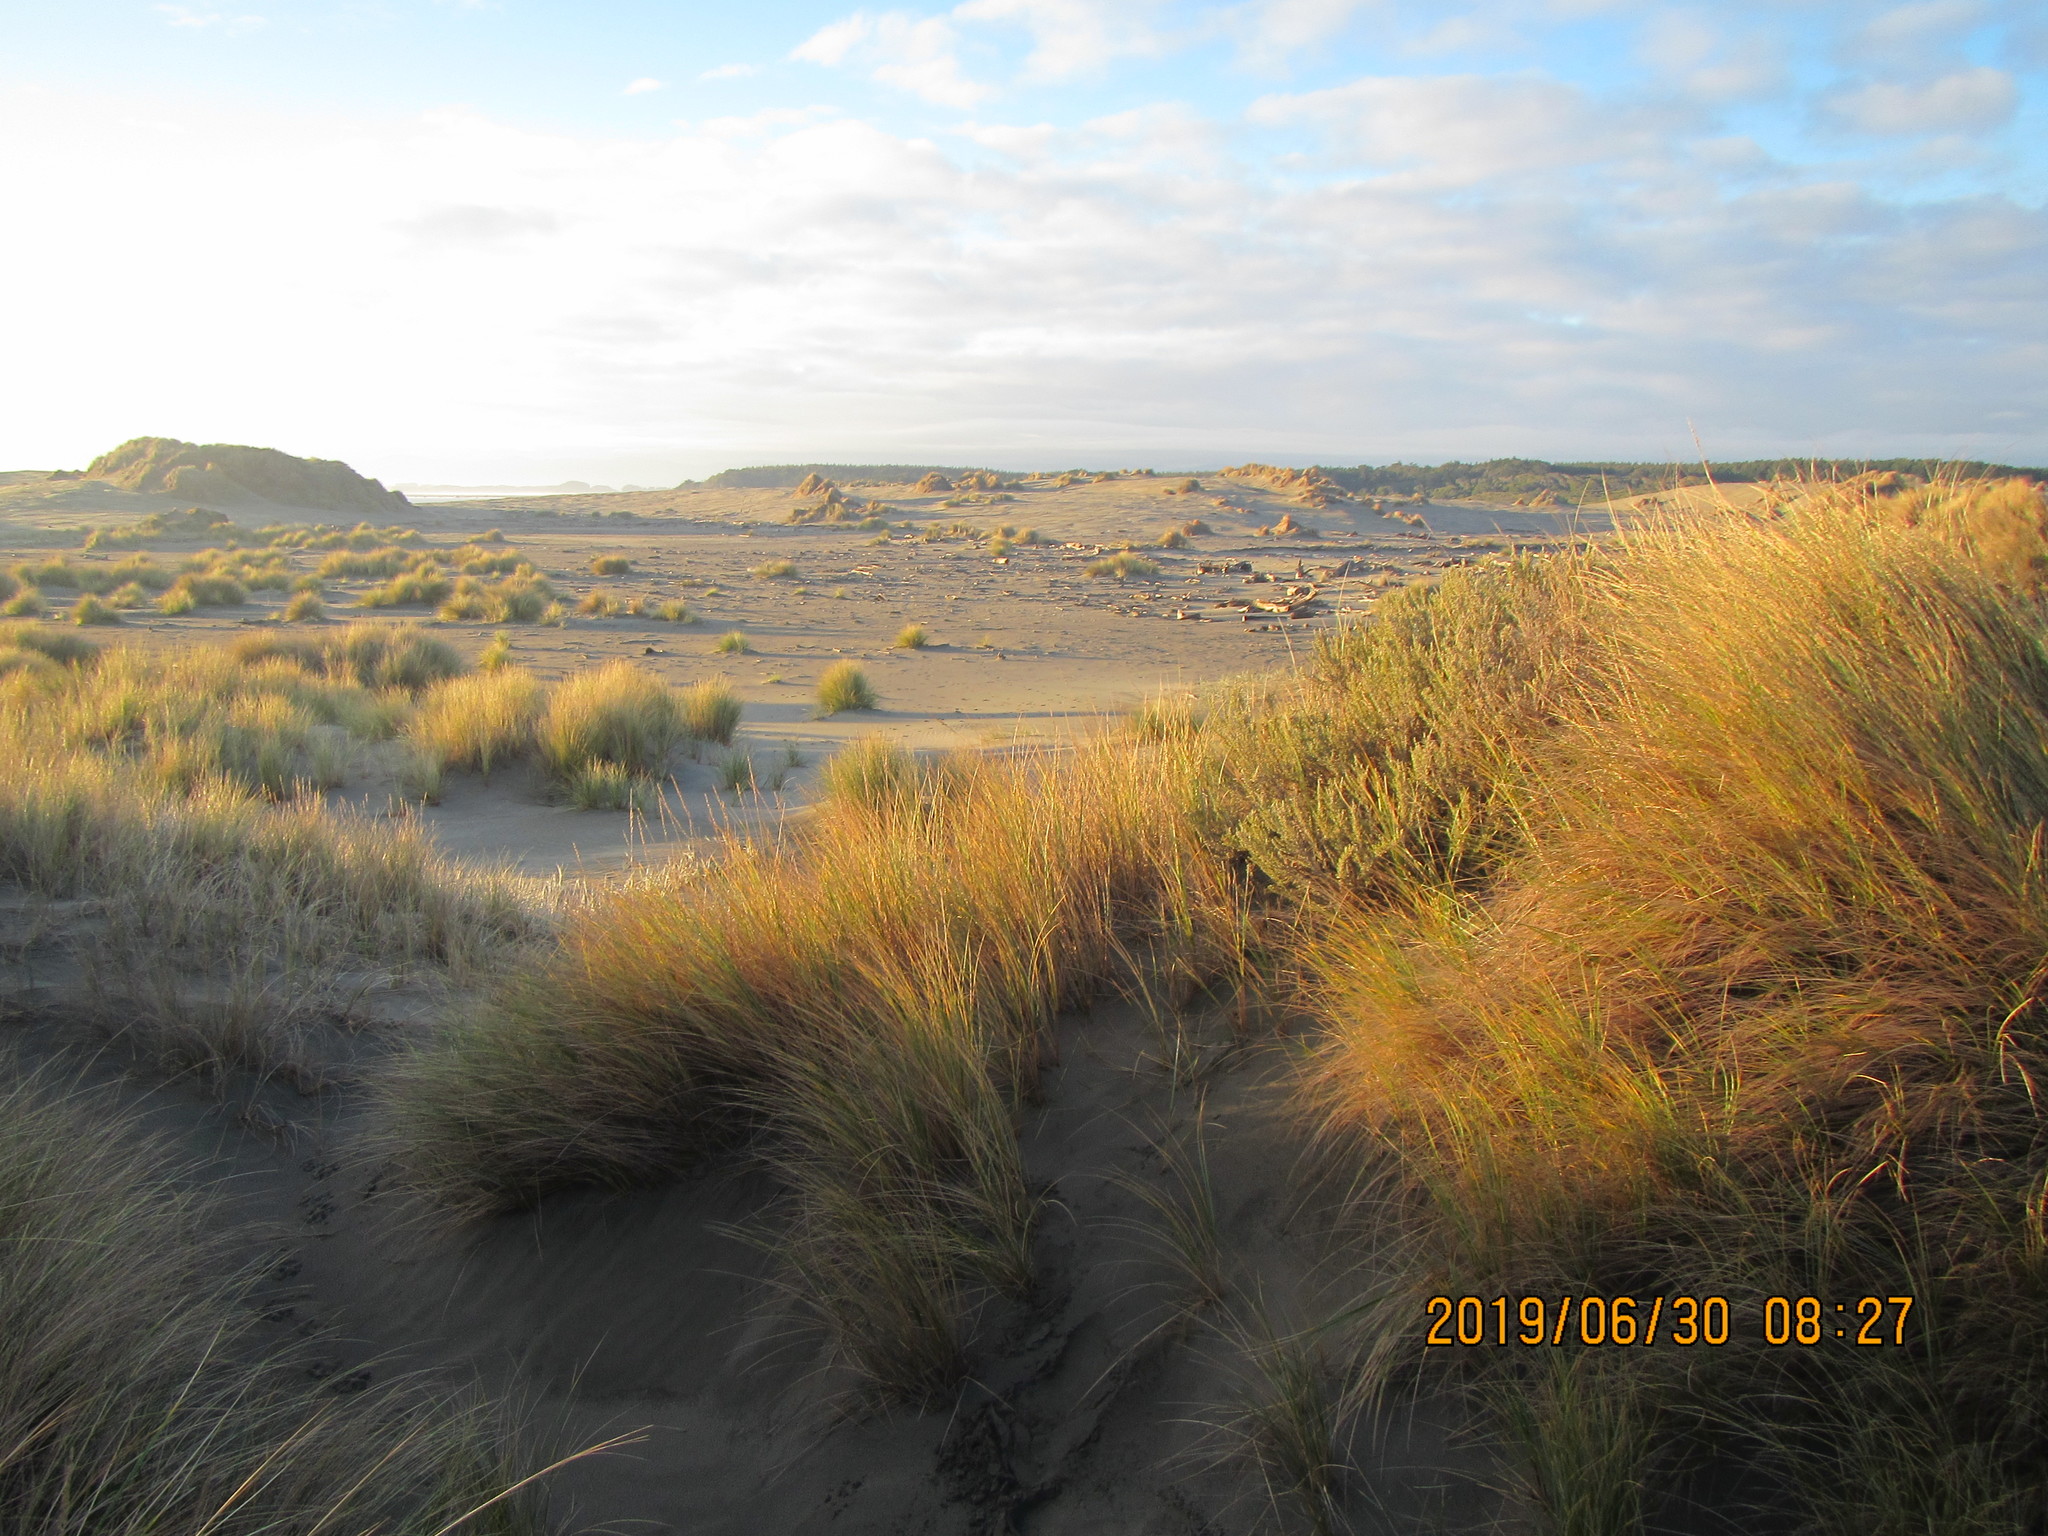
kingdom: Plantae
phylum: Tracheophyta
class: Magnoliopsida
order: Asterales
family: Asteraceae
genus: Ozothamnus
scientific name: Ozothamnus leptophyllus
